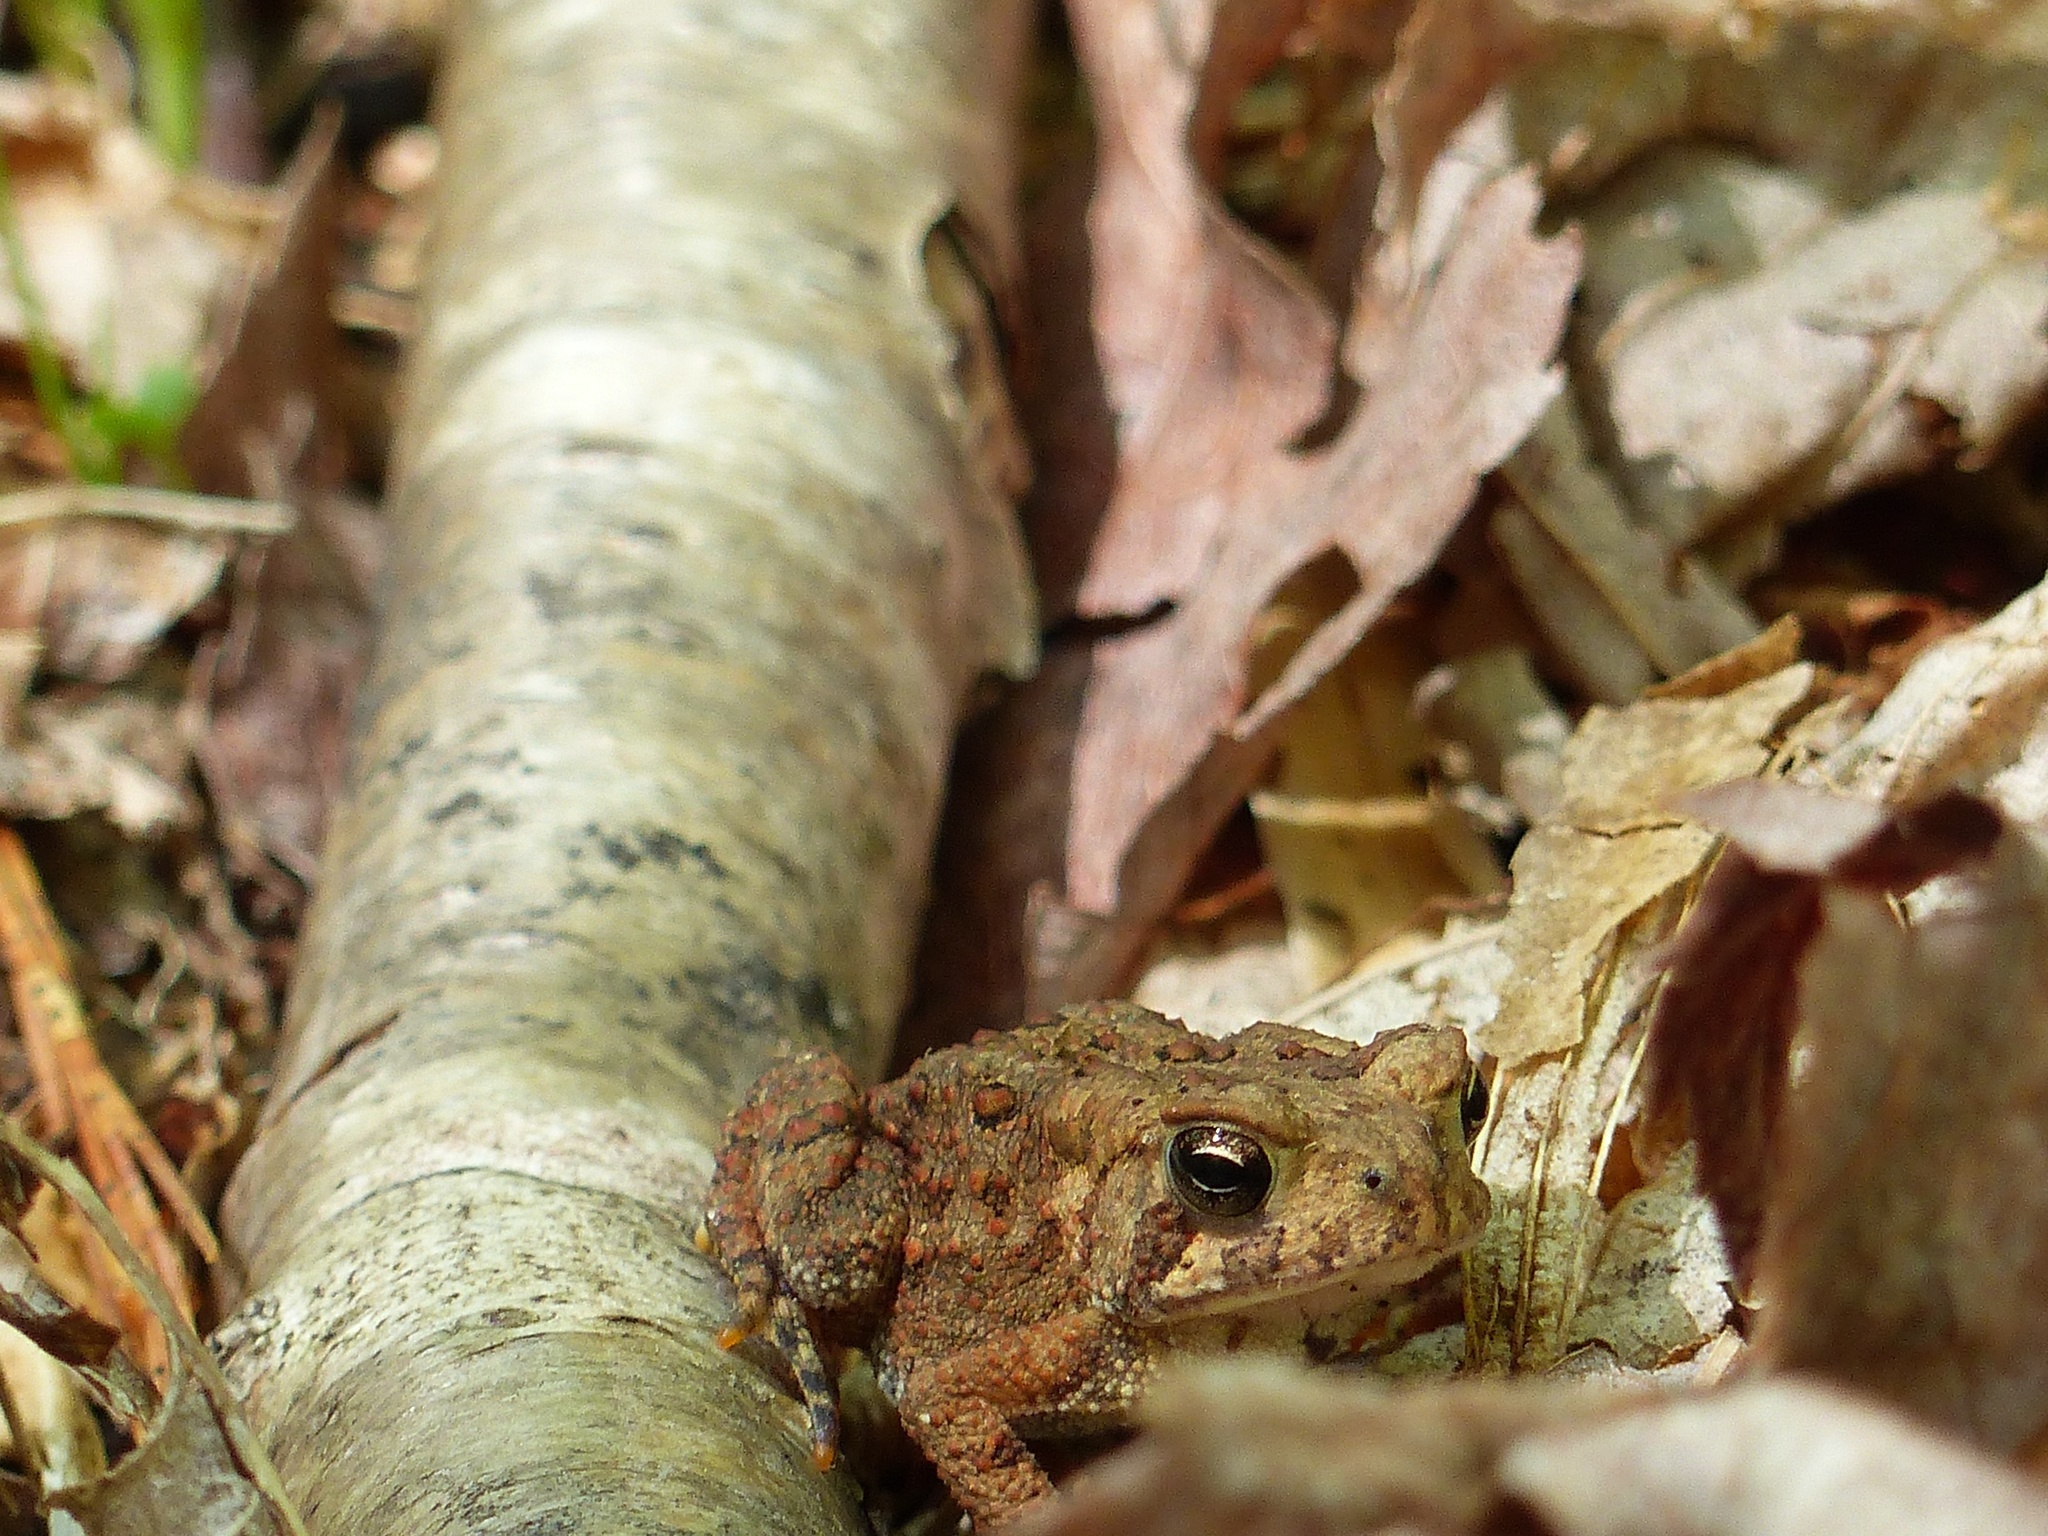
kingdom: Animalia
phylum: Chordata
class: Amphibia
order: Anura
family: Bufonidae
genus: Anaxyrus
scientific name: Anaxyrus americanus
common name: American toad
